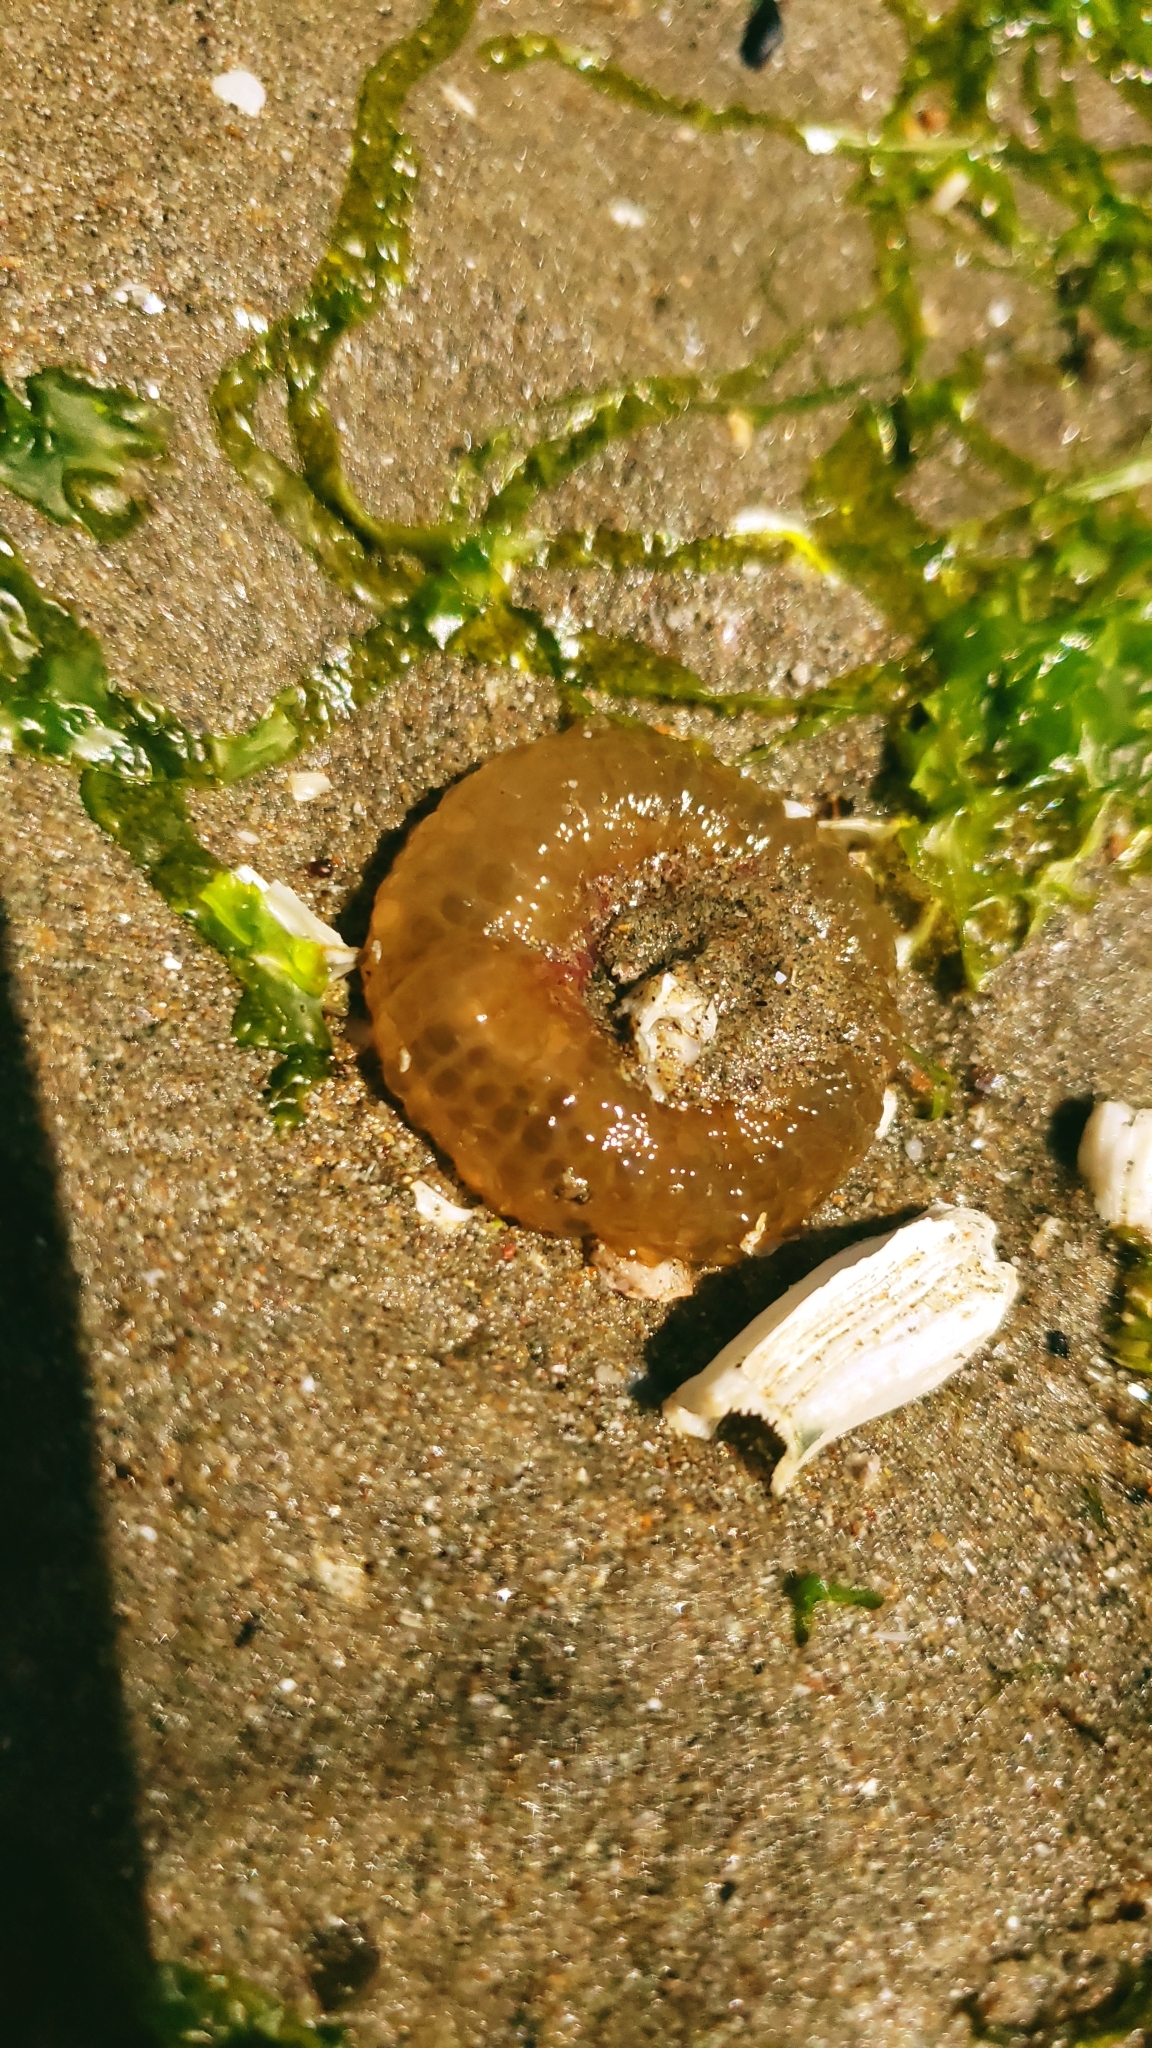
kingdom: Animalia
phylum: Cnidaria
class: Anthozoa
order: Actiniaria
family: Actiniidae
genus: Anthopleura
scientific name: Anthopleura elegantissima
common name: Clonal anemone
